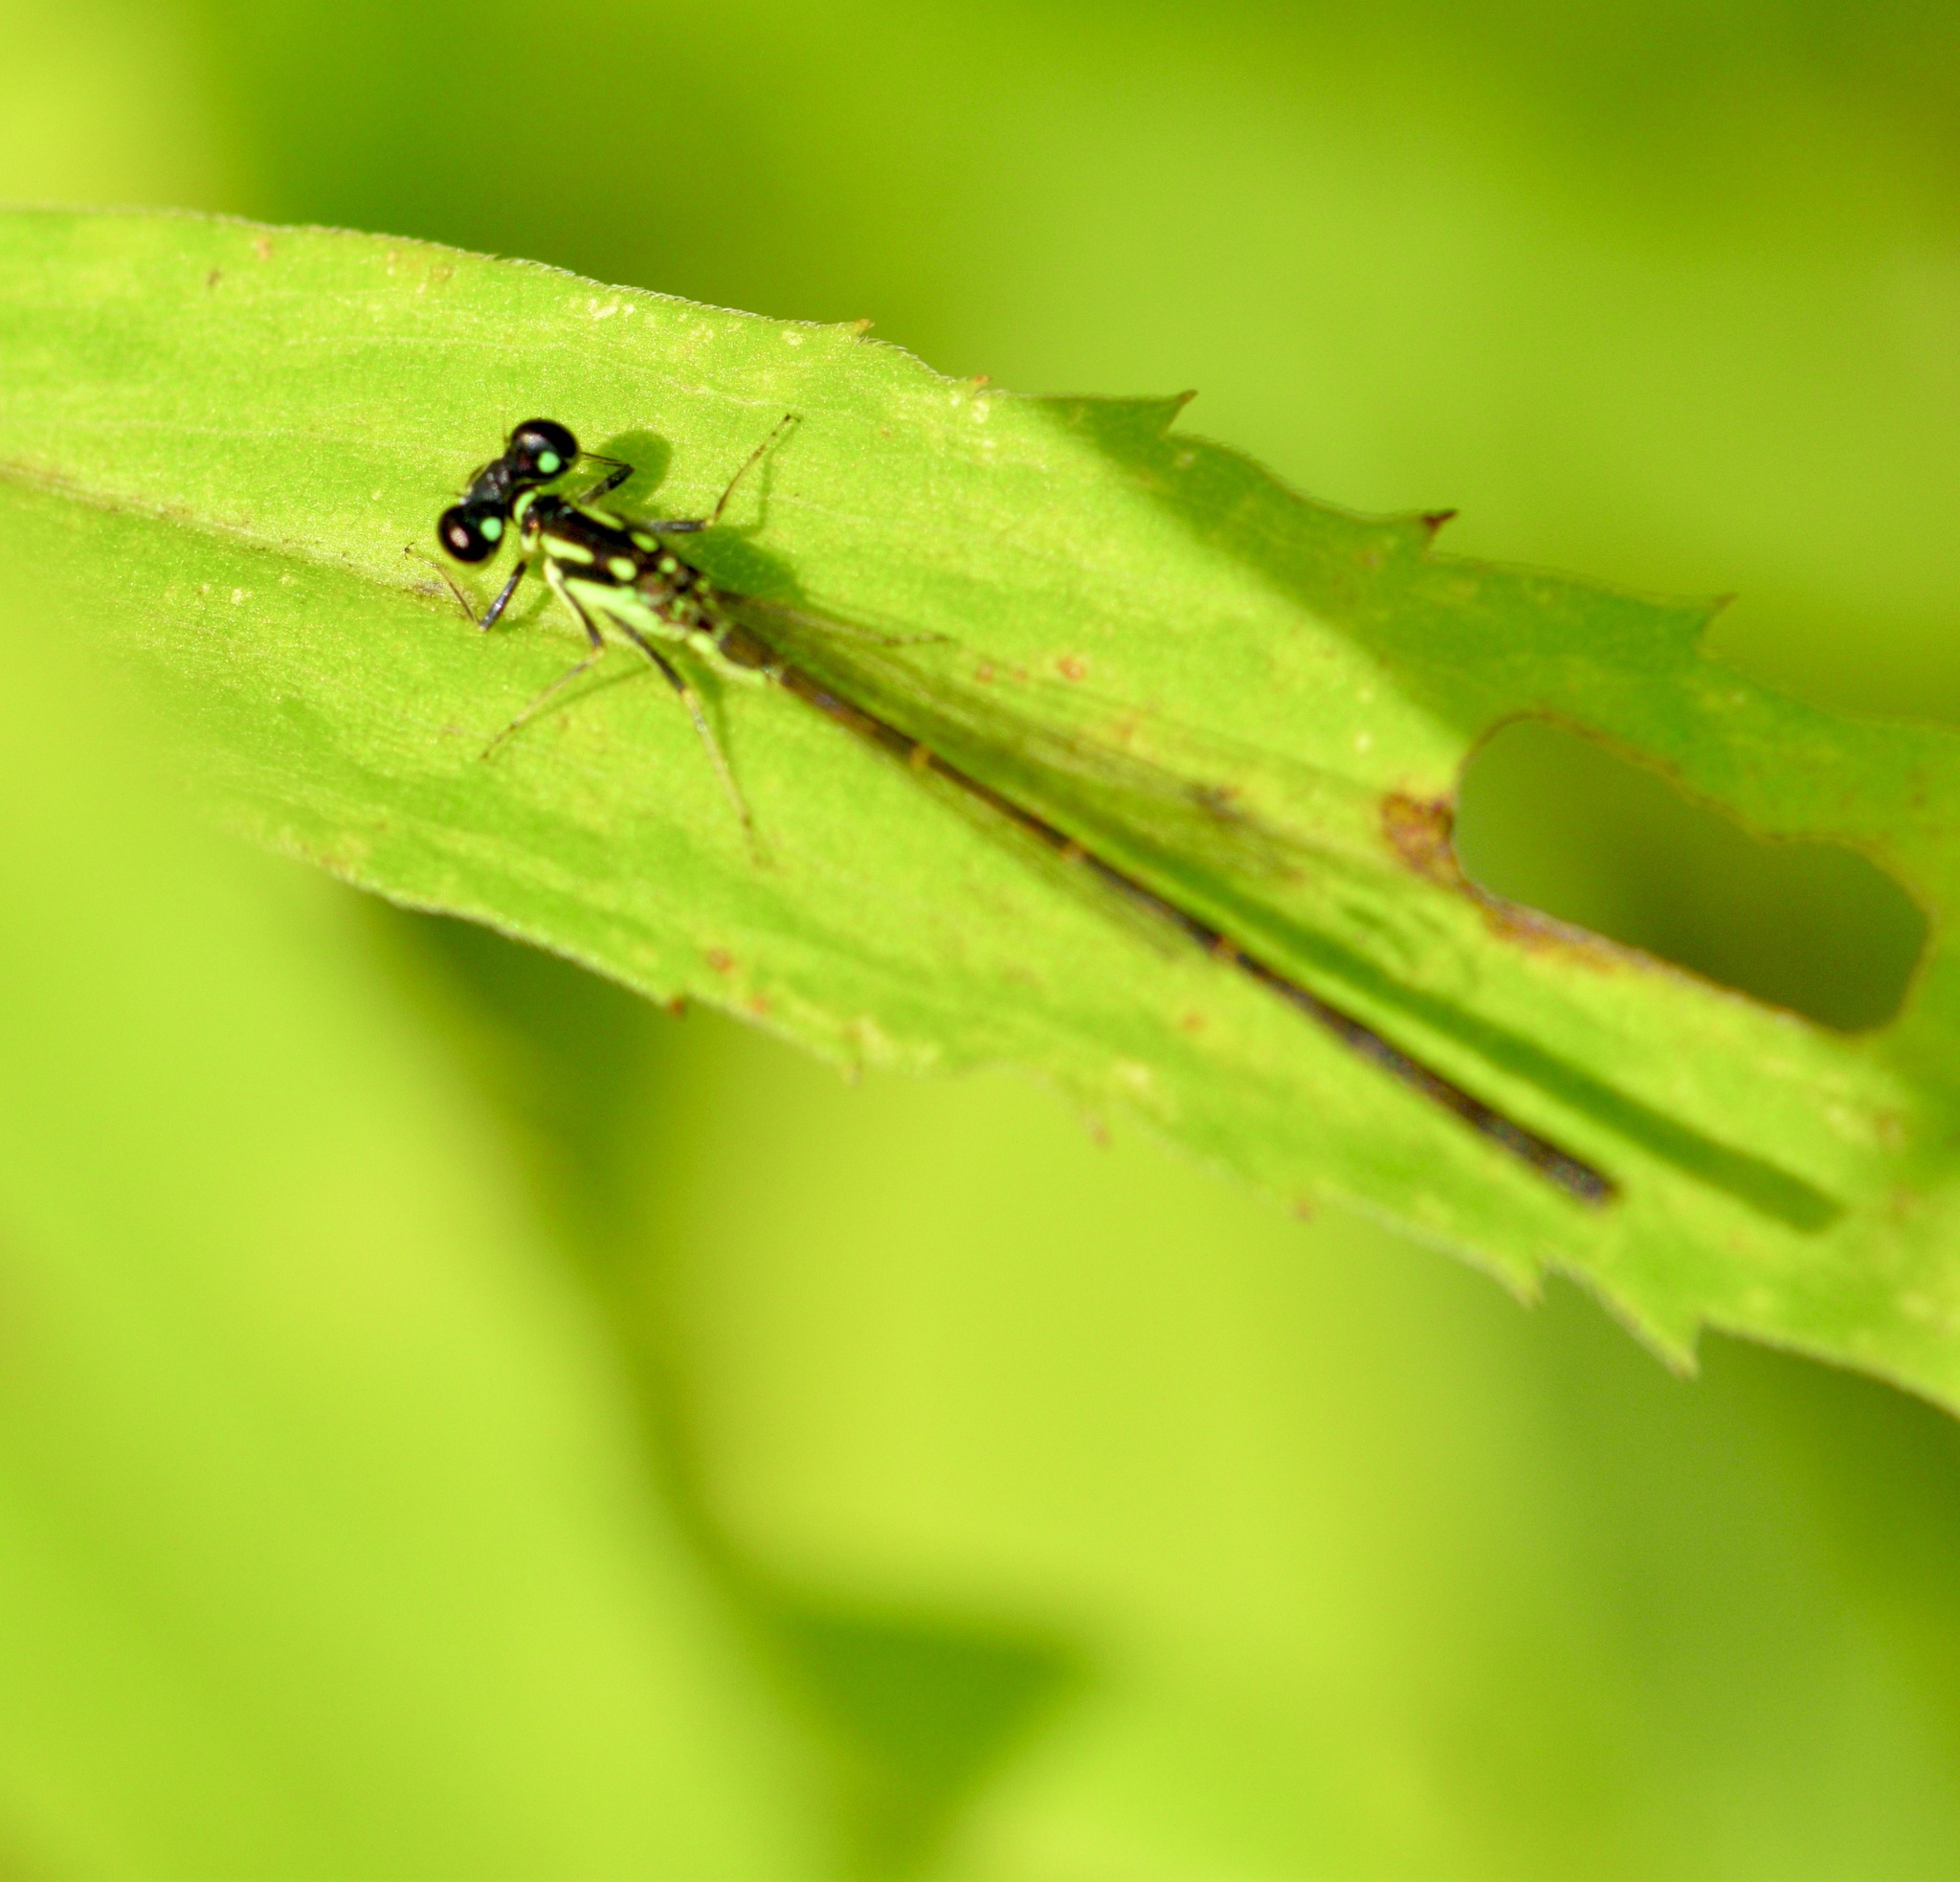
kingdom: Animalia
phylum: Arthropoda
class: Insecta
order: Odonata
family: Coenagrionidae
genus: Ischnura
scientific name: Ischnura posita
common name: Fragile forktail
